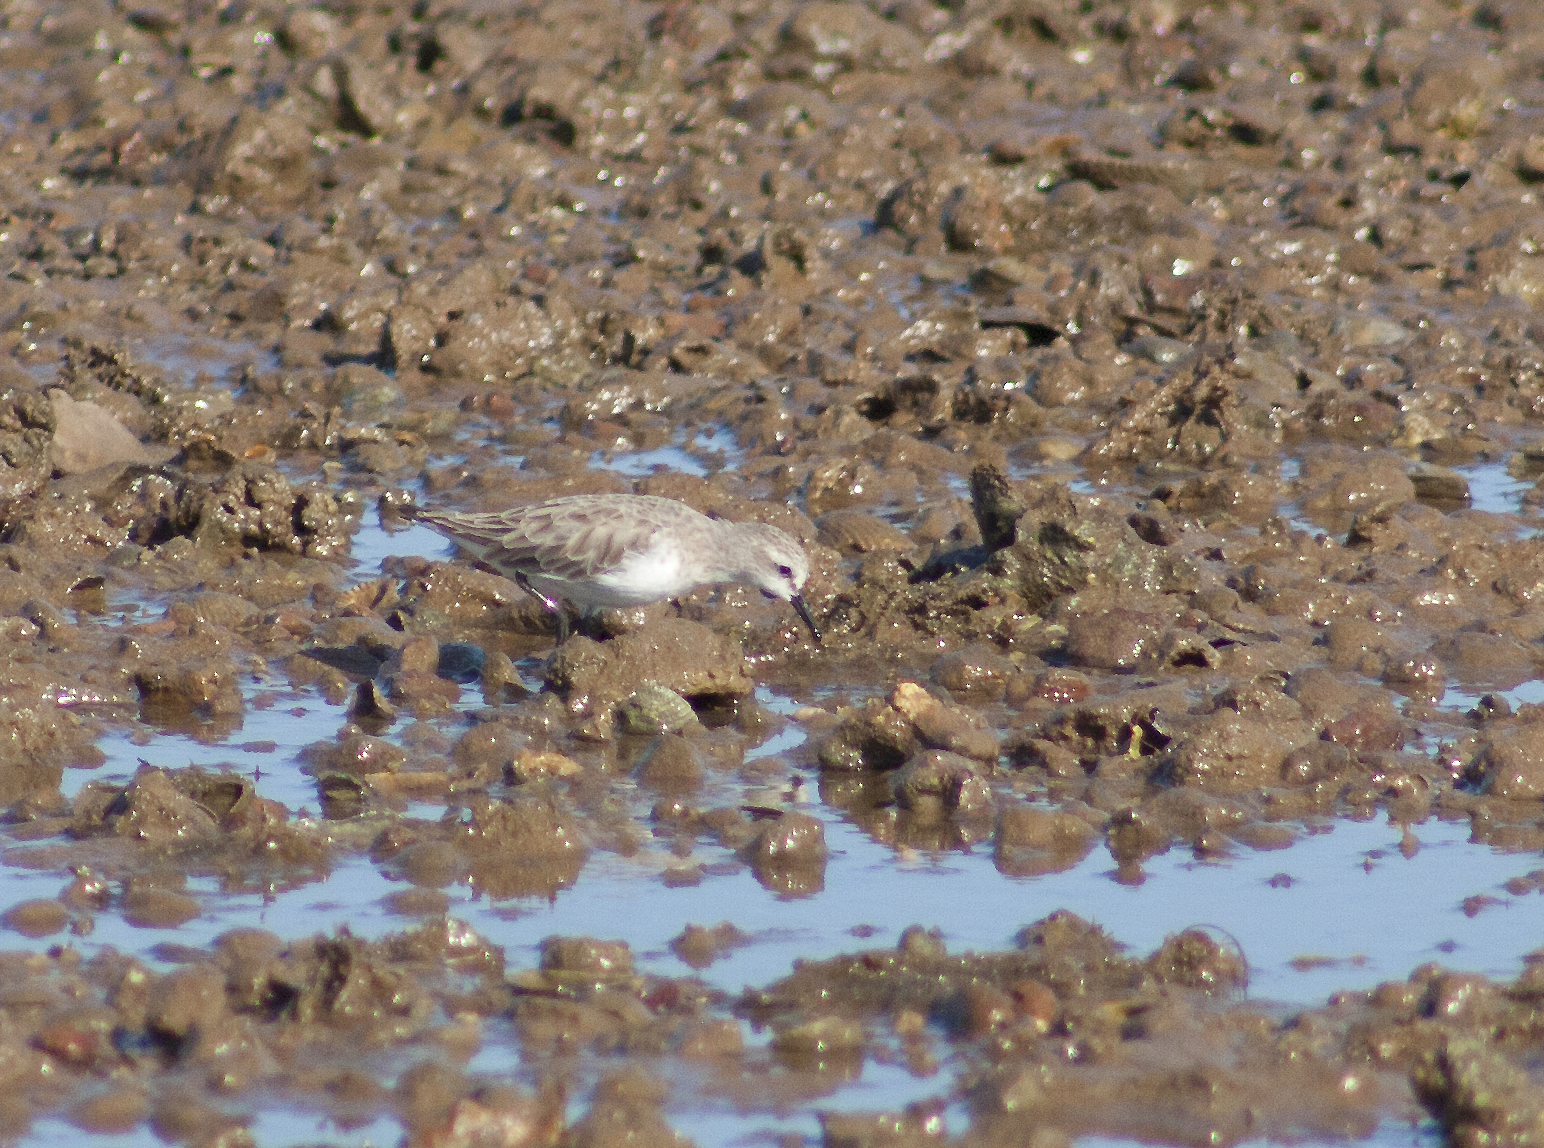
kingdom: Animalia
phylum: Chordata
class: Aves
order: Charadriiformes
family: Scolopacidae
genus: Calidris
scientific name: Calidris ruficollis
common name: Red-necked stint
